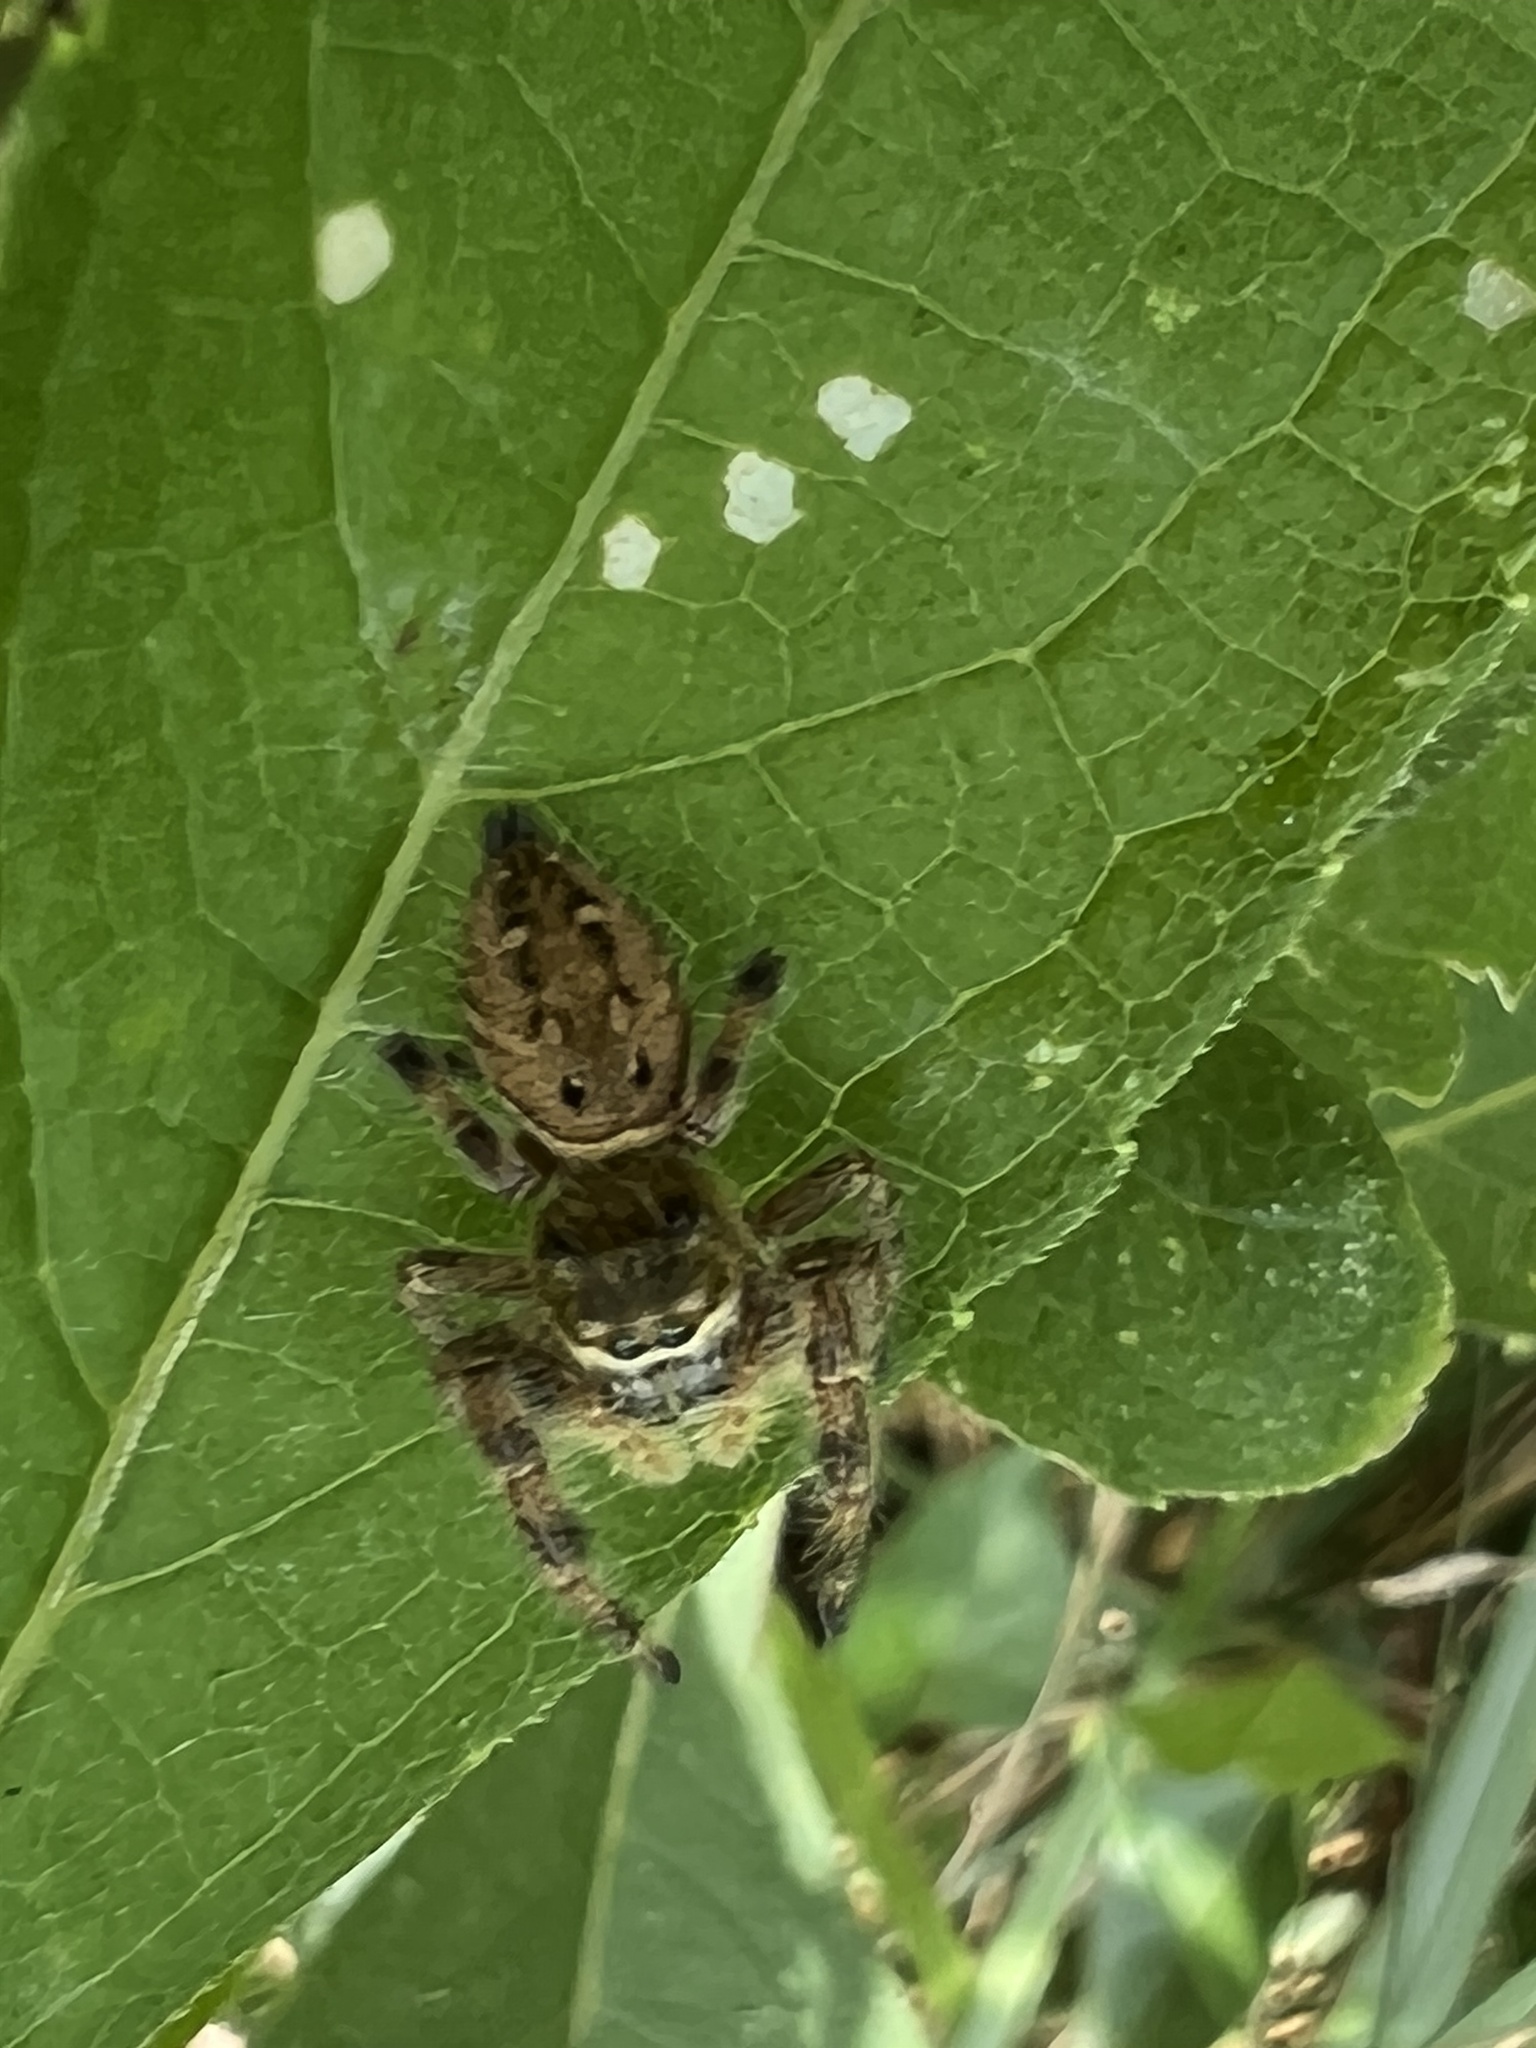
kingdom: Animalia
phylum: Arthropoda
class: Arachnida
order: Araneae
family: Salticidae
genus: Phidippus
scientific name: Phidippus clarus
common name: Brilliant jumping spider
